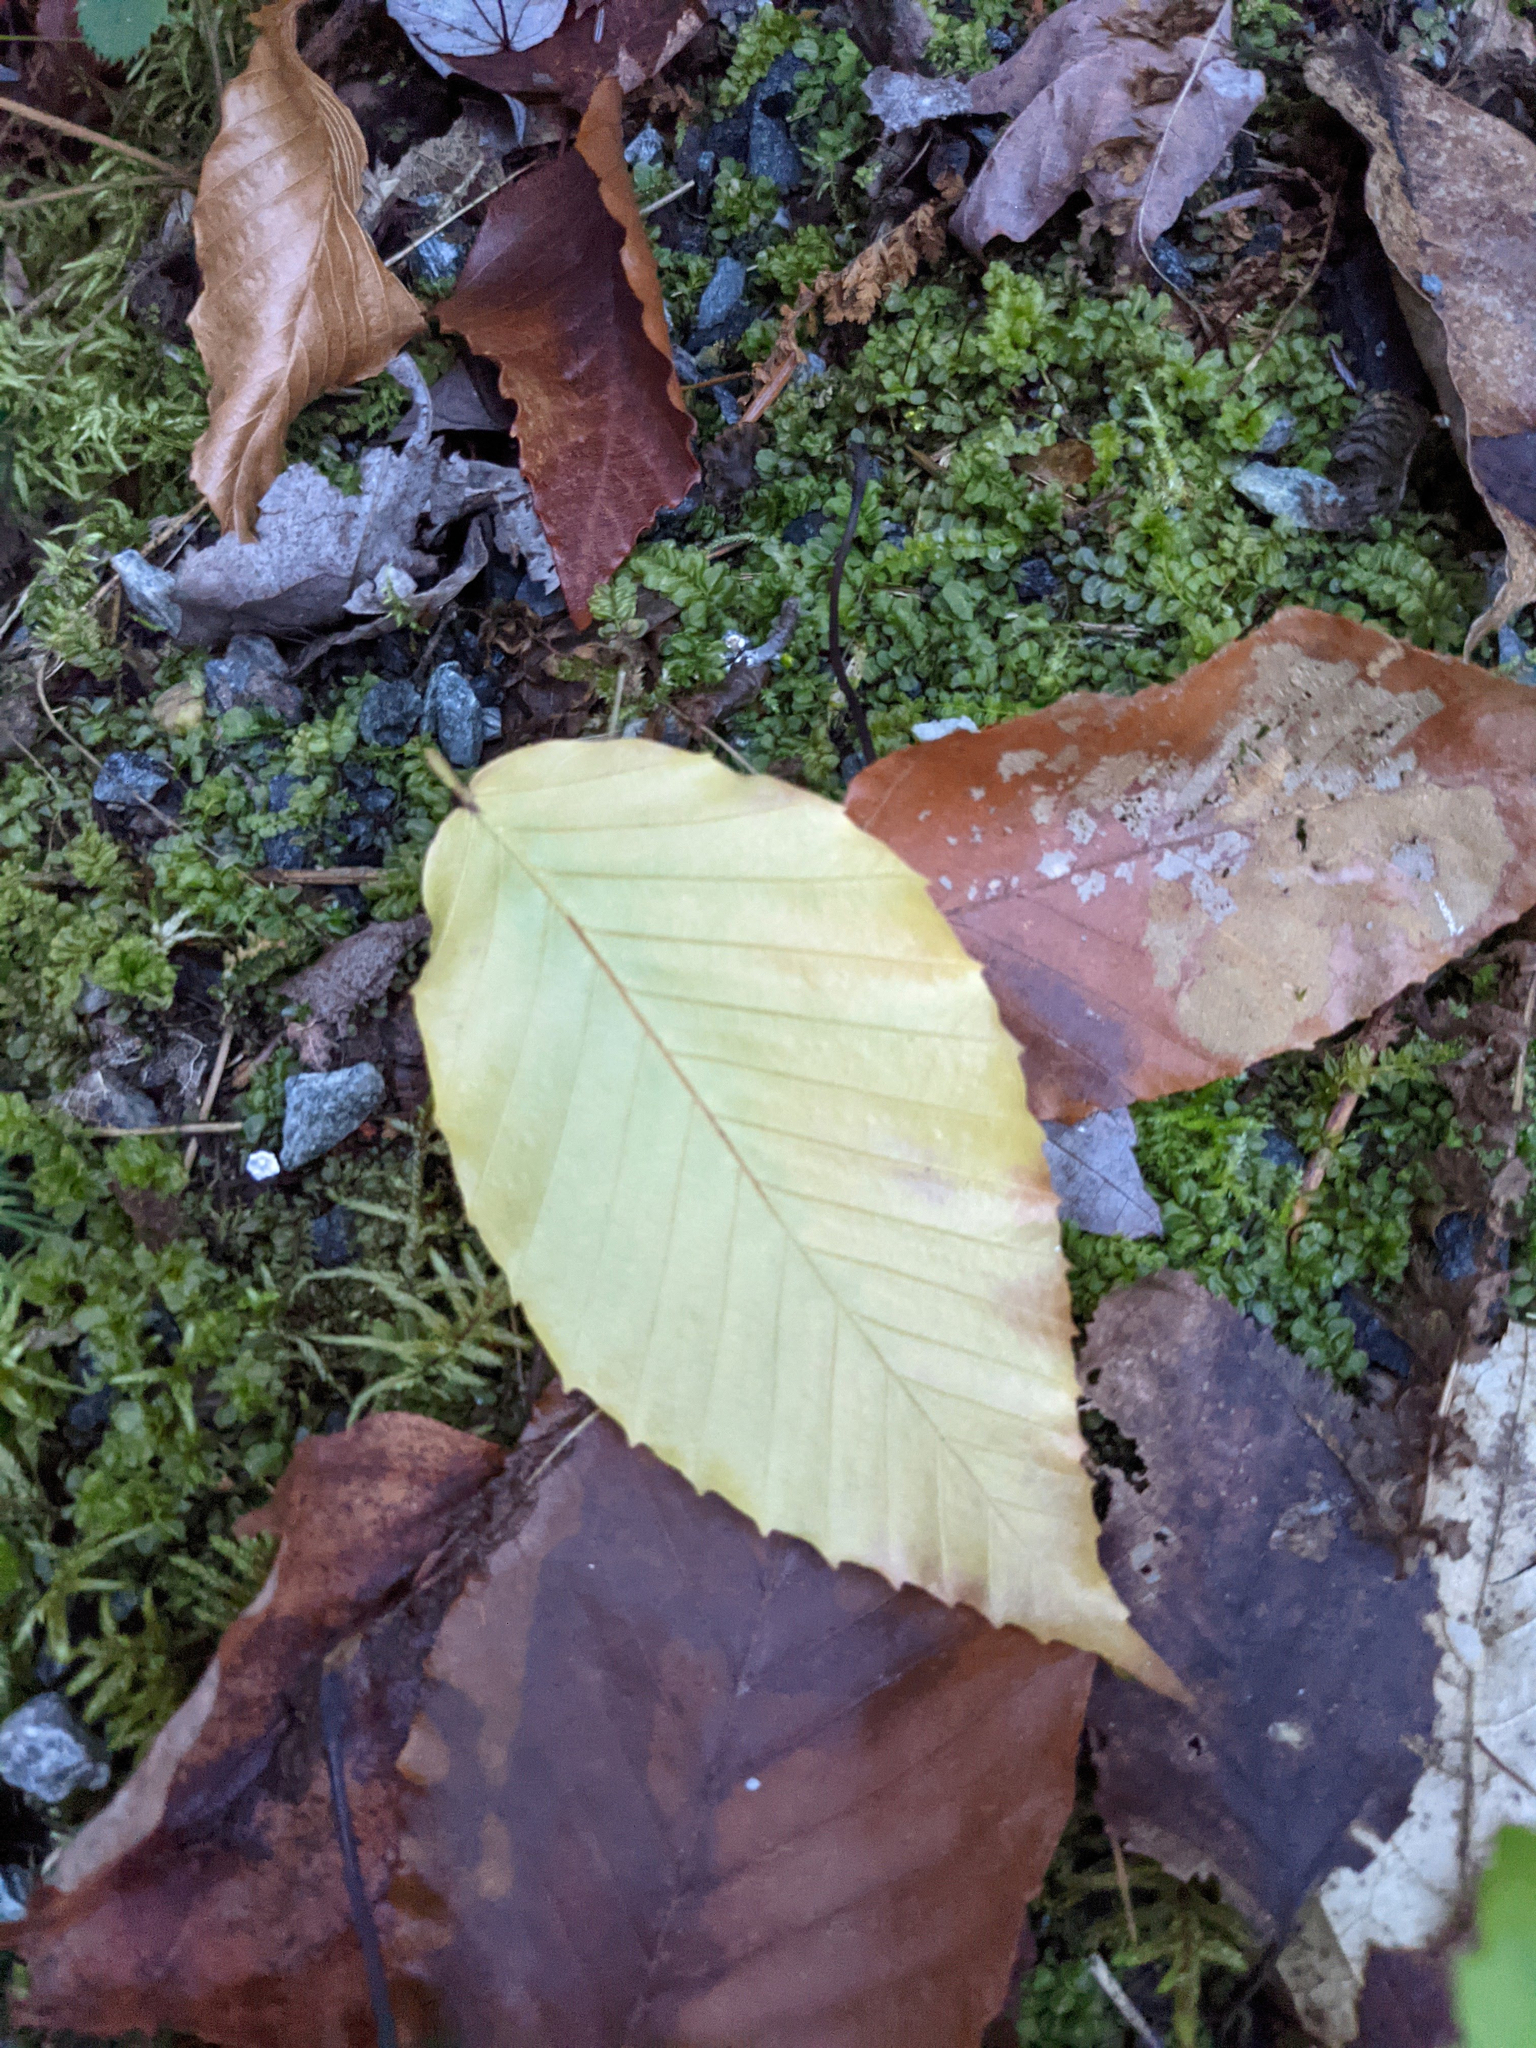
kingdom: Plantae
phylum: Tracheophyta
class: Magnoliopsida
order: Fagales
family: Fagaceae
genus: Fagus
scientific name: Fagus grandifolia
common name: American beech
